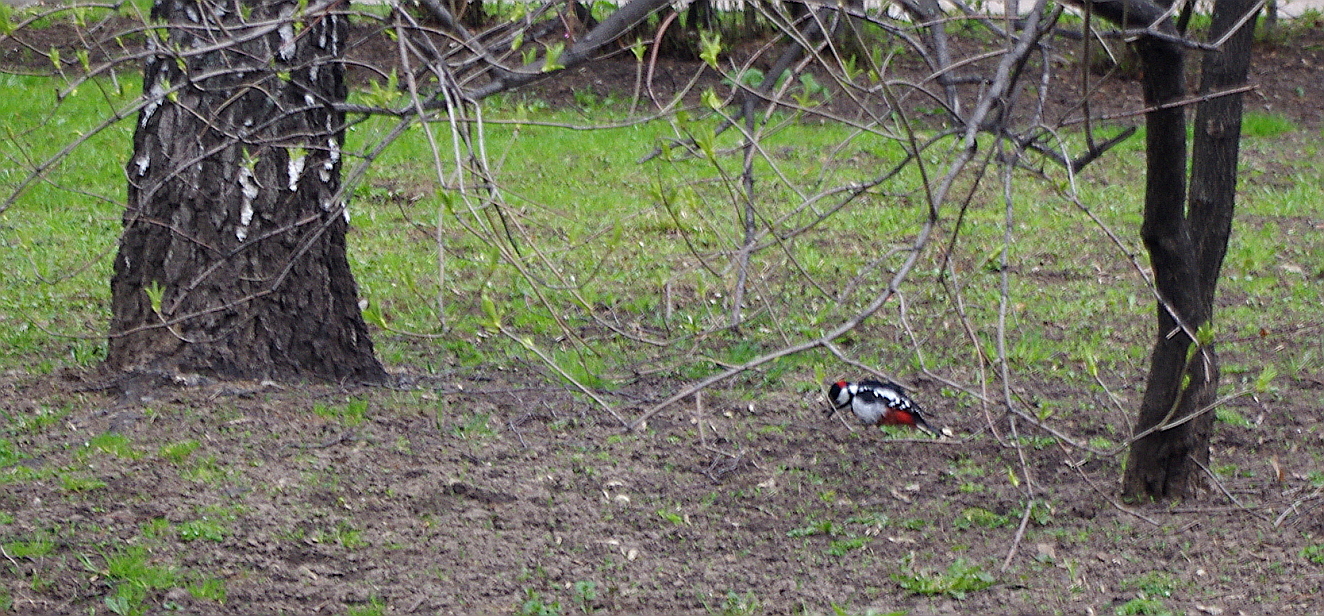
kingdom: Animalia
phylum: Chordata
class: Aves
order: Piciformes
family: Picidae
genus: Dendrocopos
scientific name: Dendrocopos major
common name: Great spotted woodpecker
